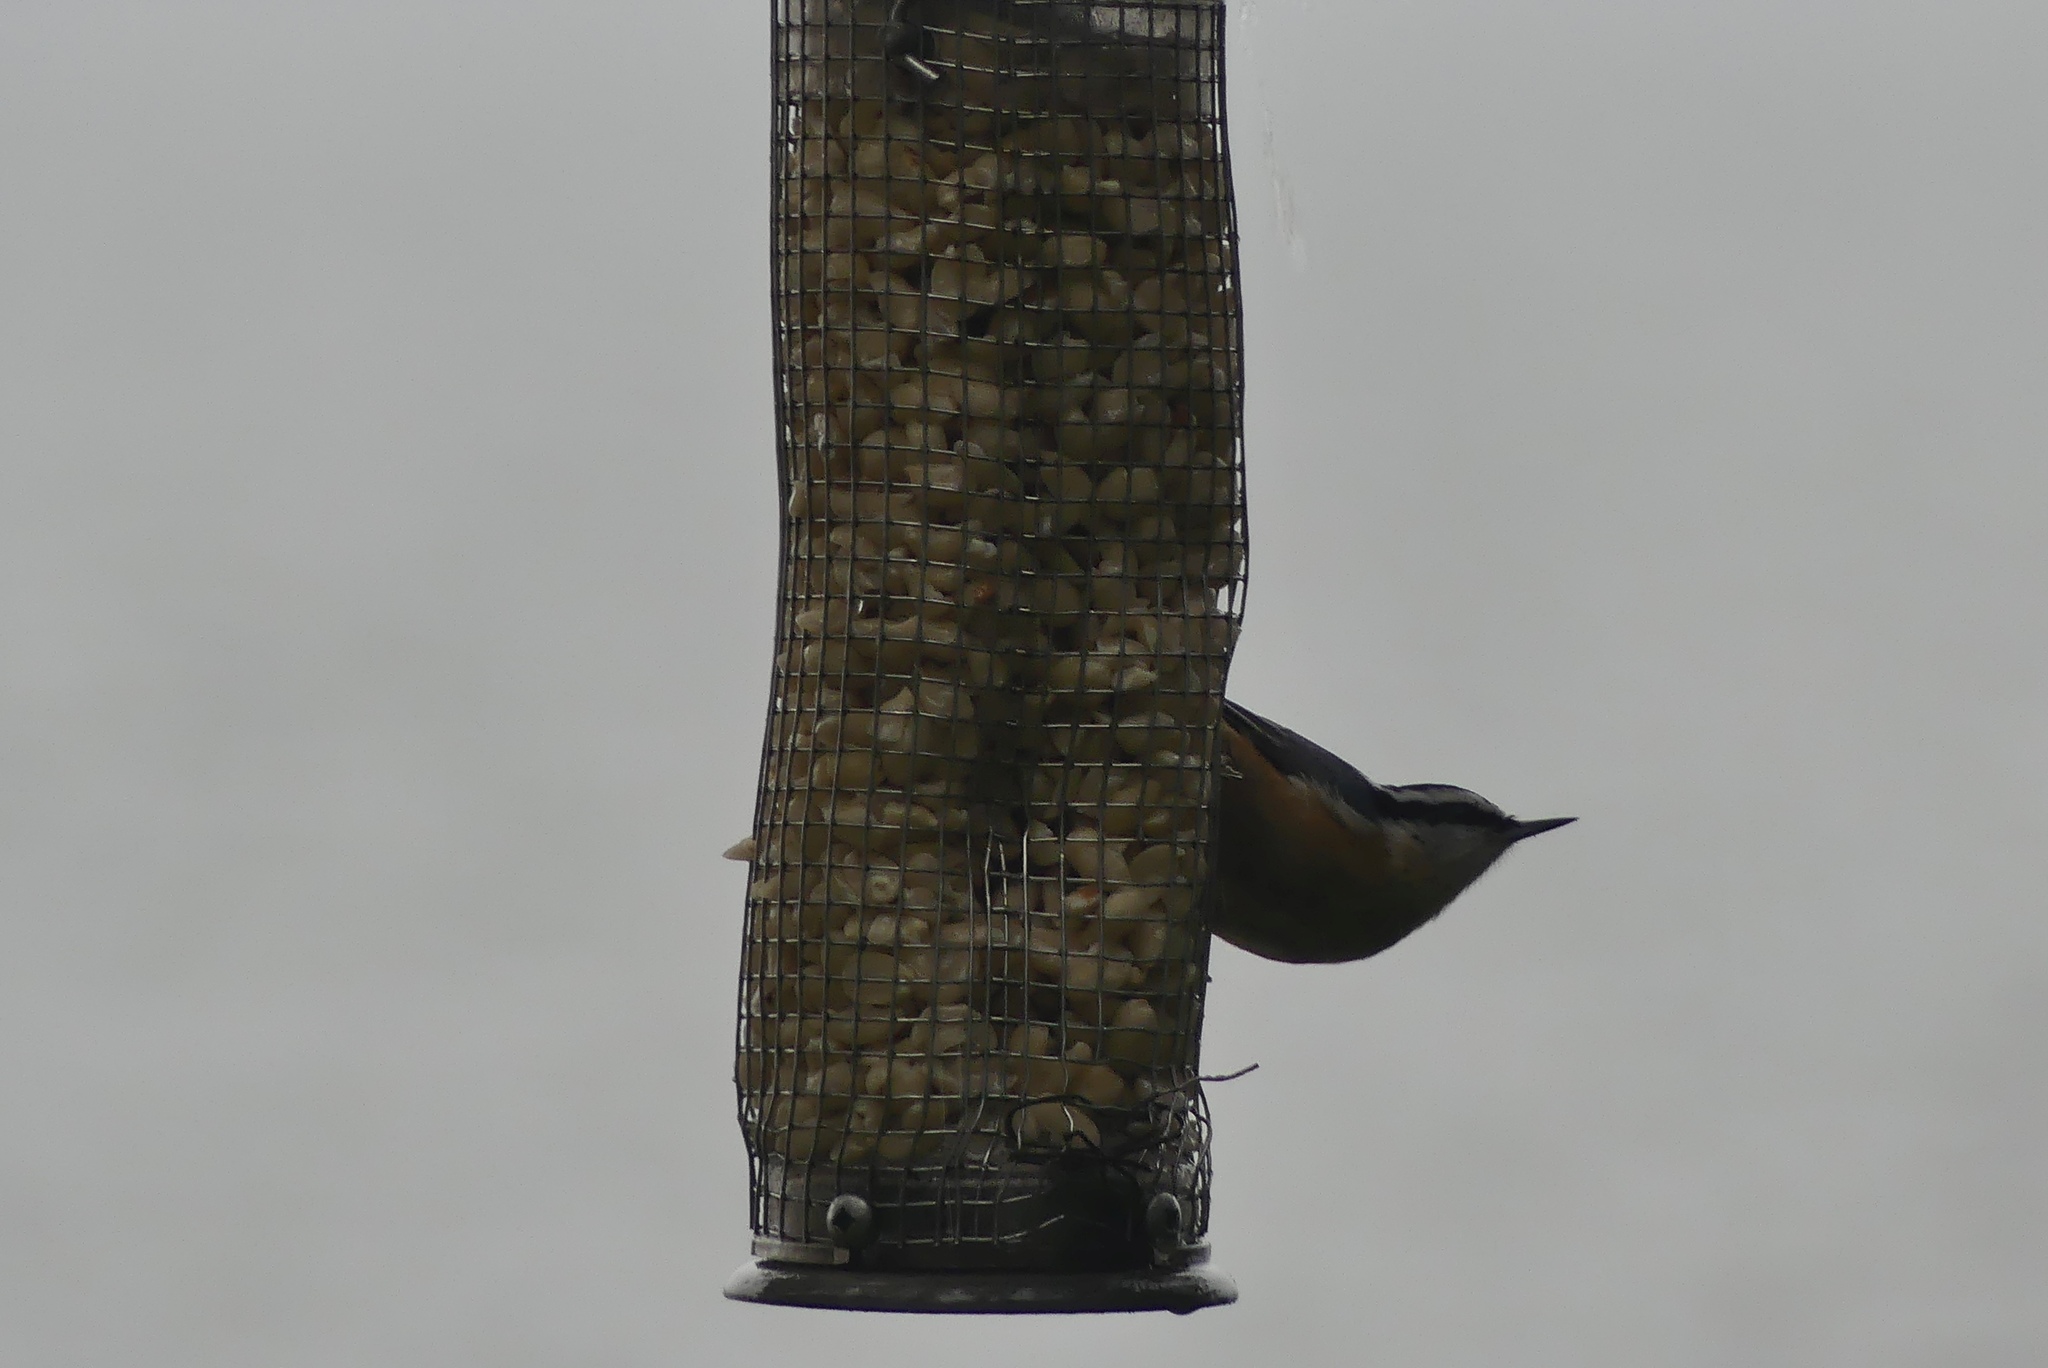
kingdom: Animalia
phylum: Chordata
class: Aves
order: Passeriformes
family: Sittidae
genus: Sitta
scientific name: Sitta canadensis
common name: Red-breasted nuthatch
